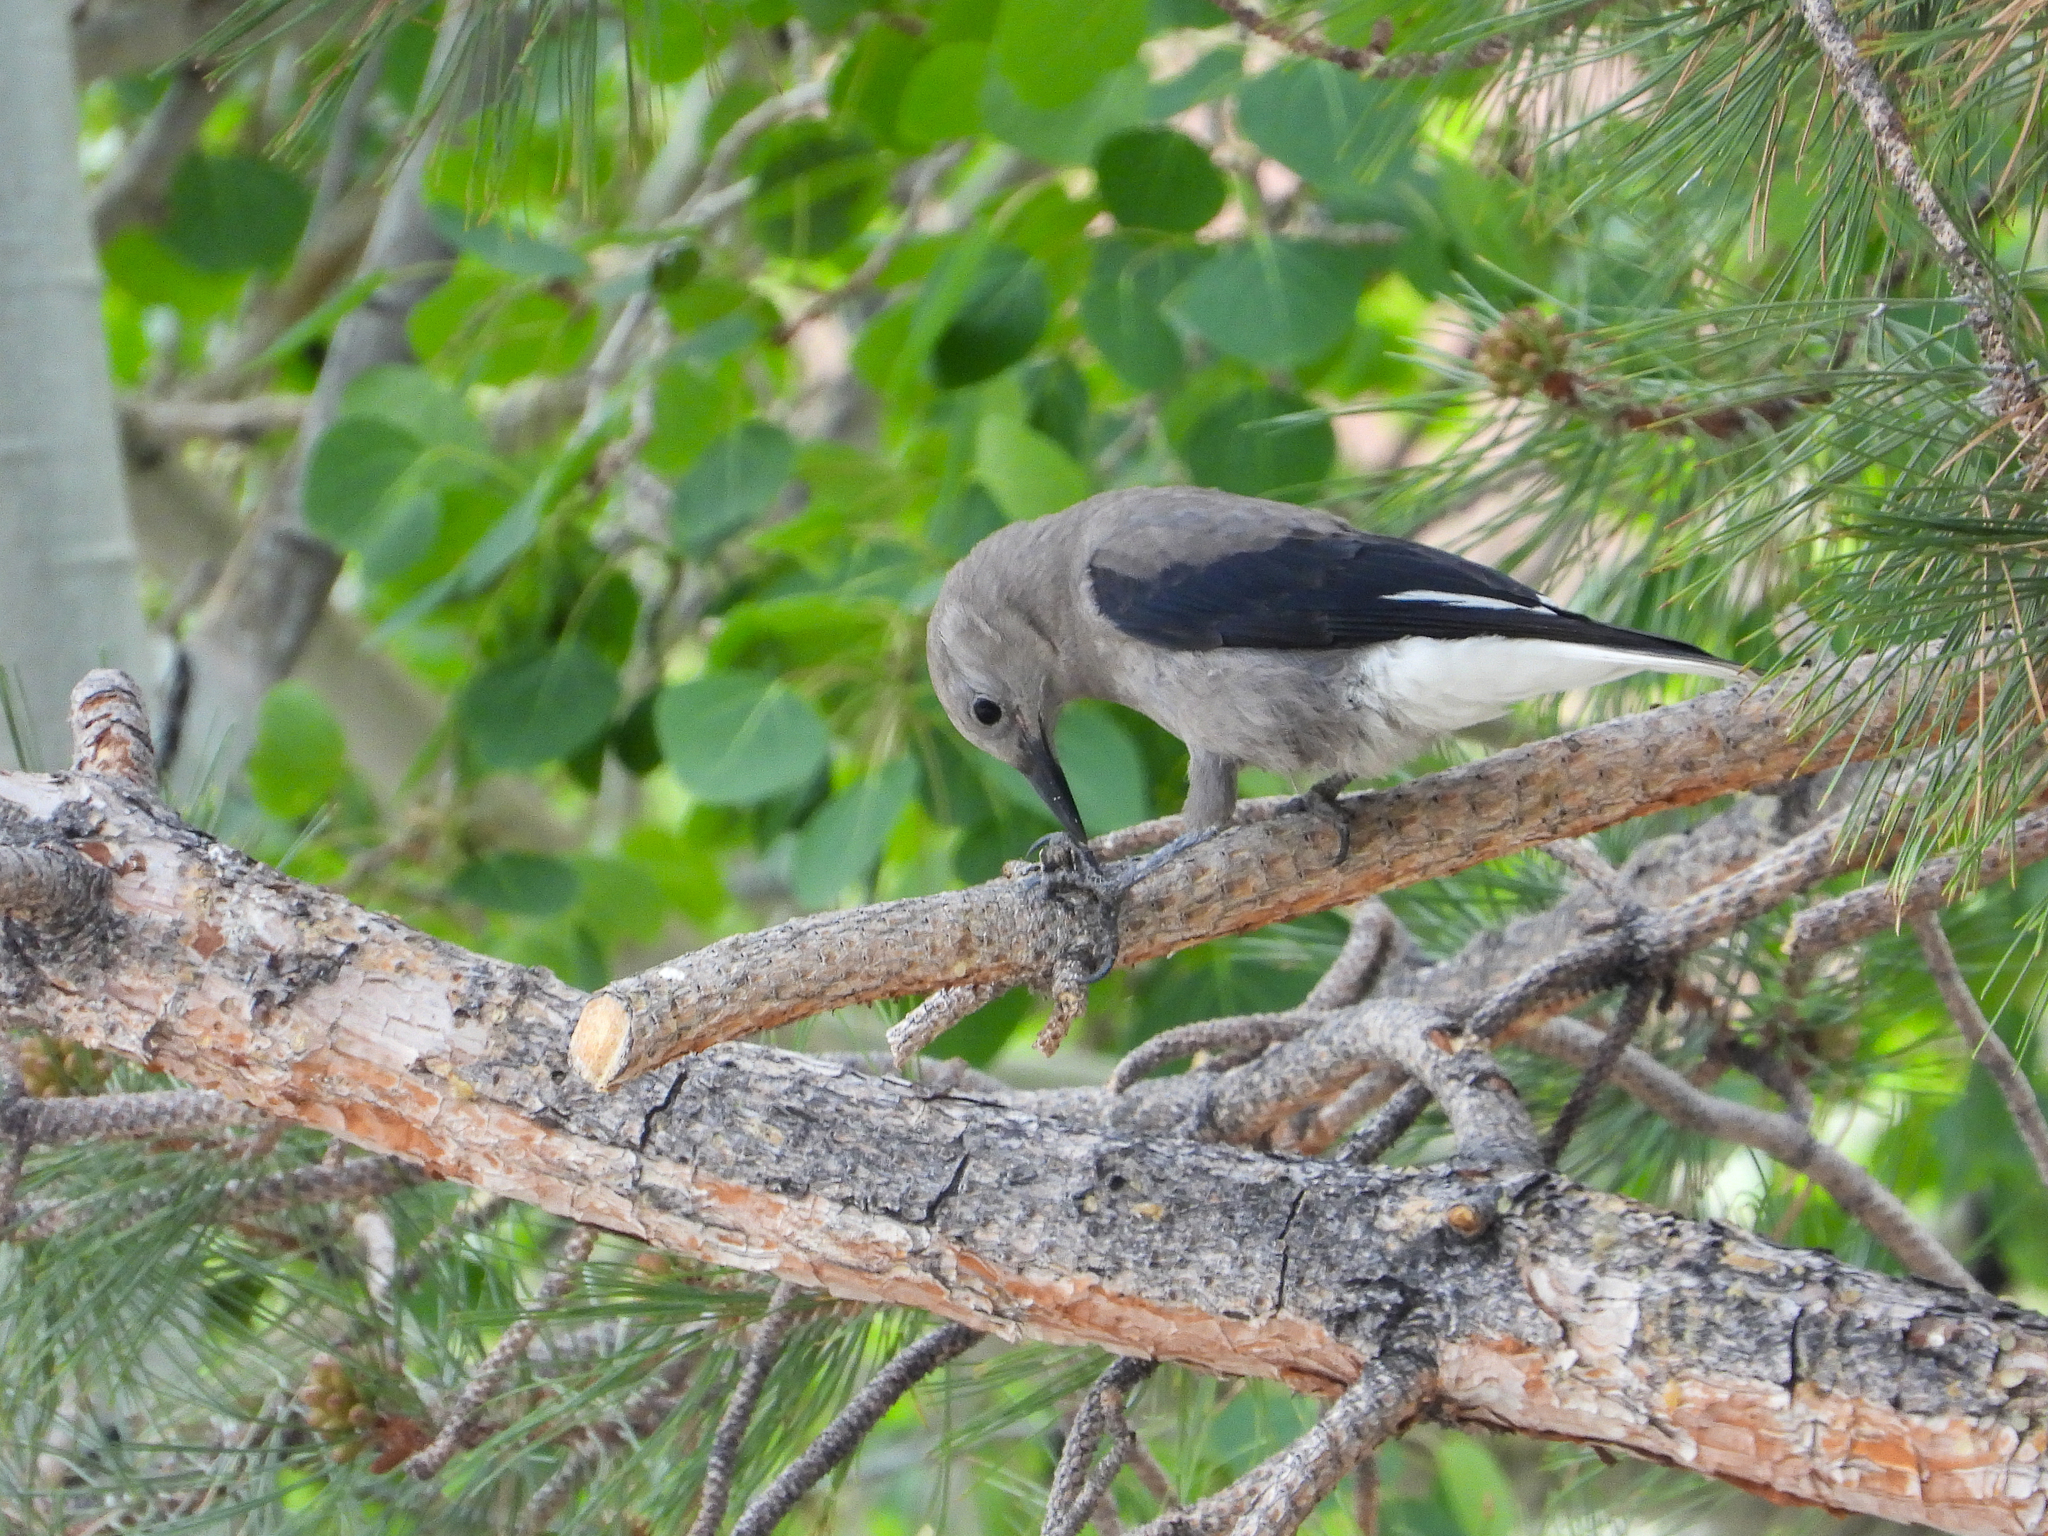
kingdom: Animalia
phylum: Chordata
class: Aves
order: Passeriformes
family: Corvidae
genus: Nucifraga
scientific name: Nucifraga columbiana
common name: Clark's nutcracker
